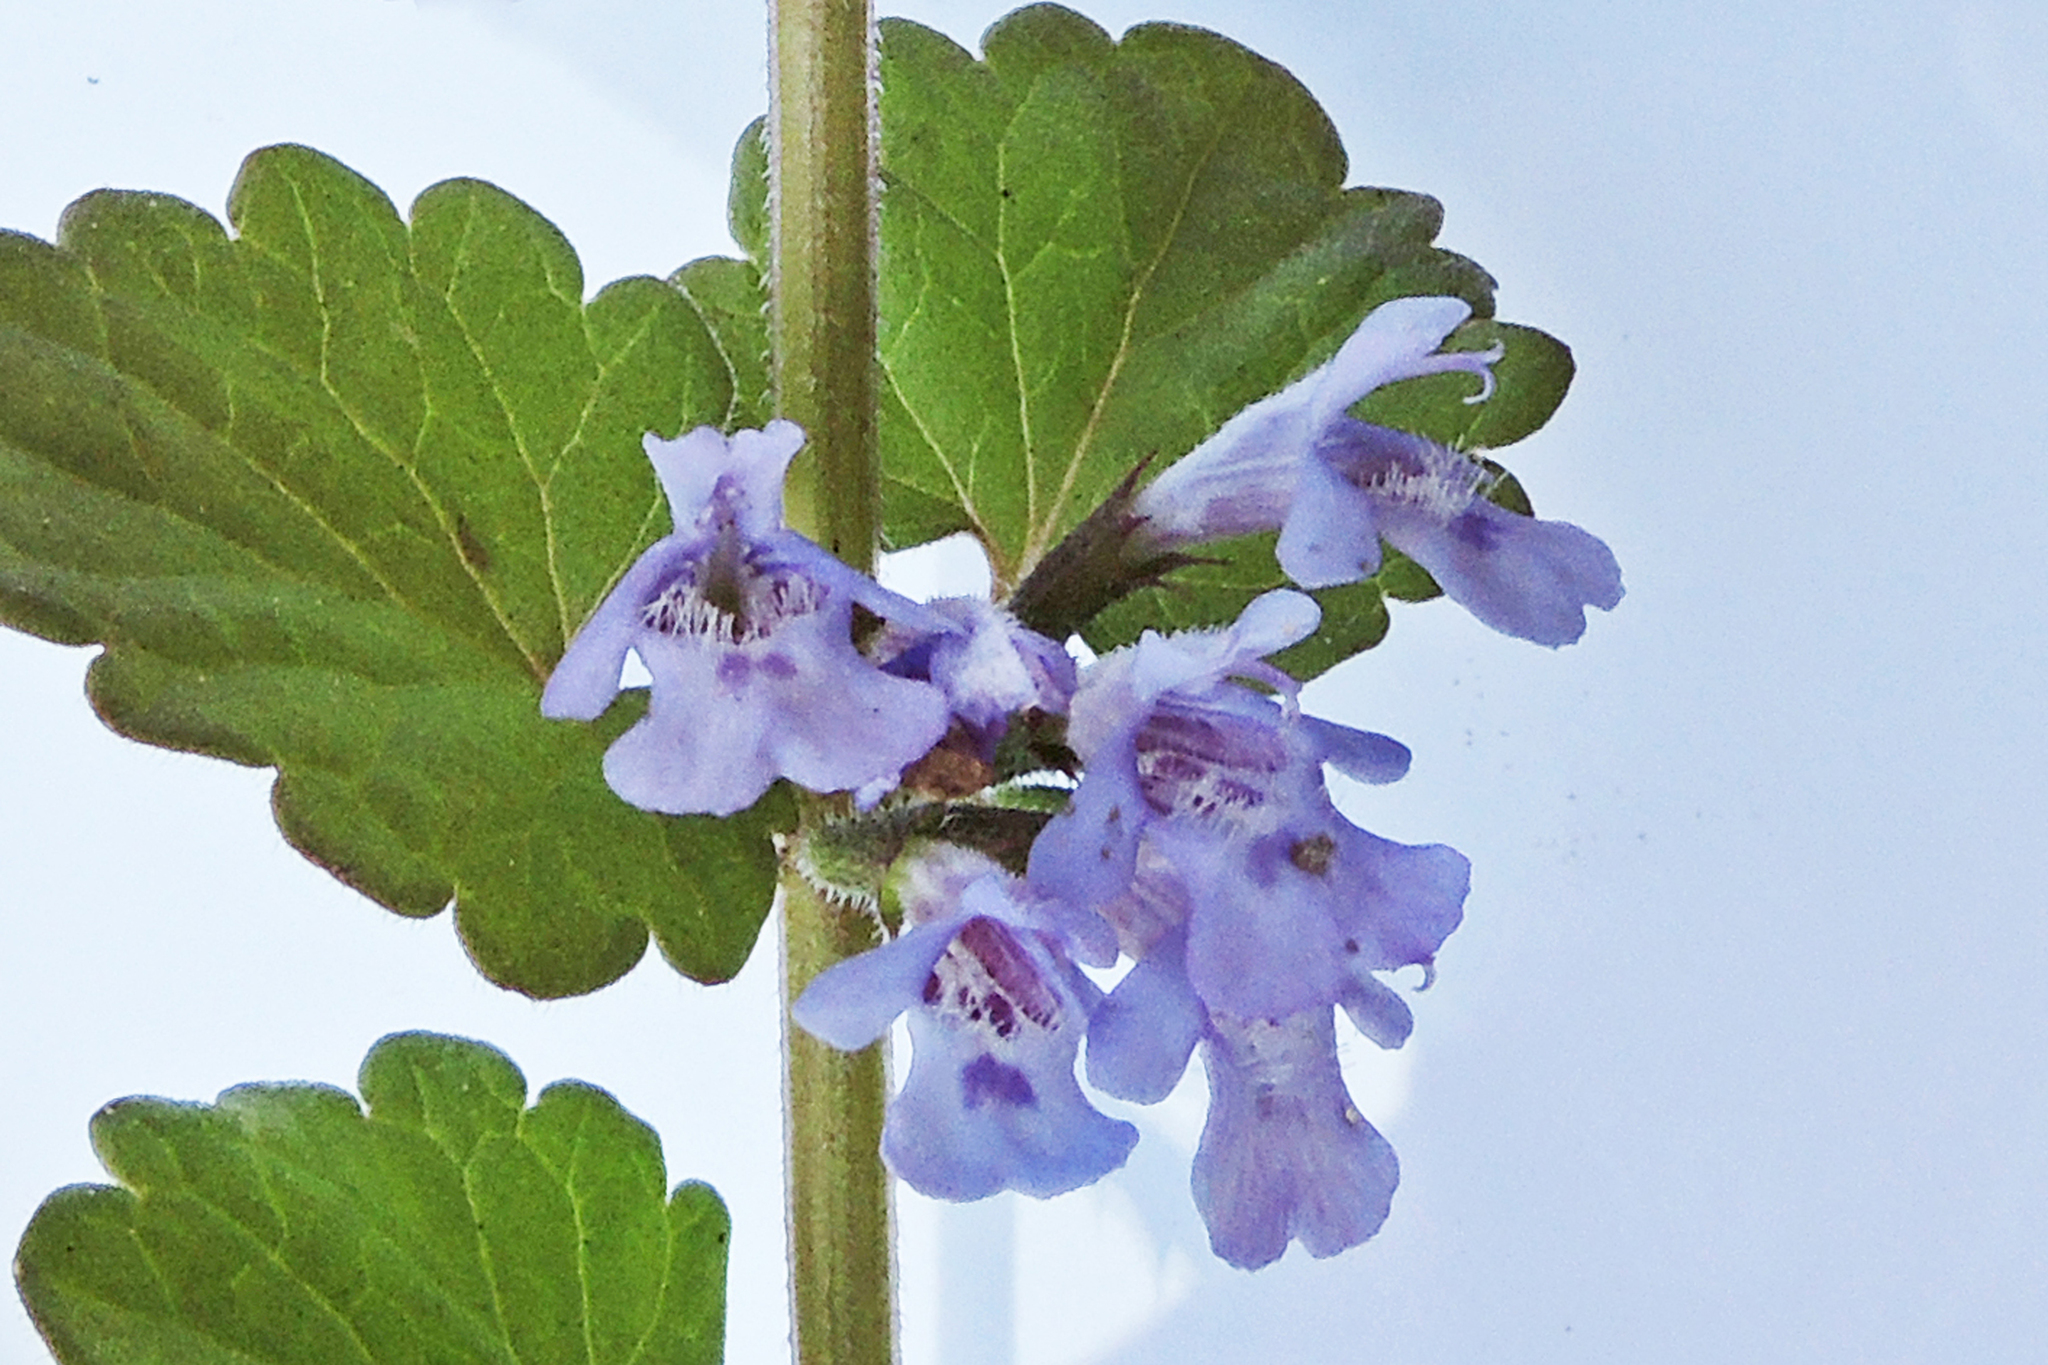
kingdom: Plantae
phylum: Tracheophyta
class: Magnoliopsida
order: Lamiales
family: Lamiaceae
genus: Glechoma
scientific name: Glechoma hederacea
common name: Ground ivy
